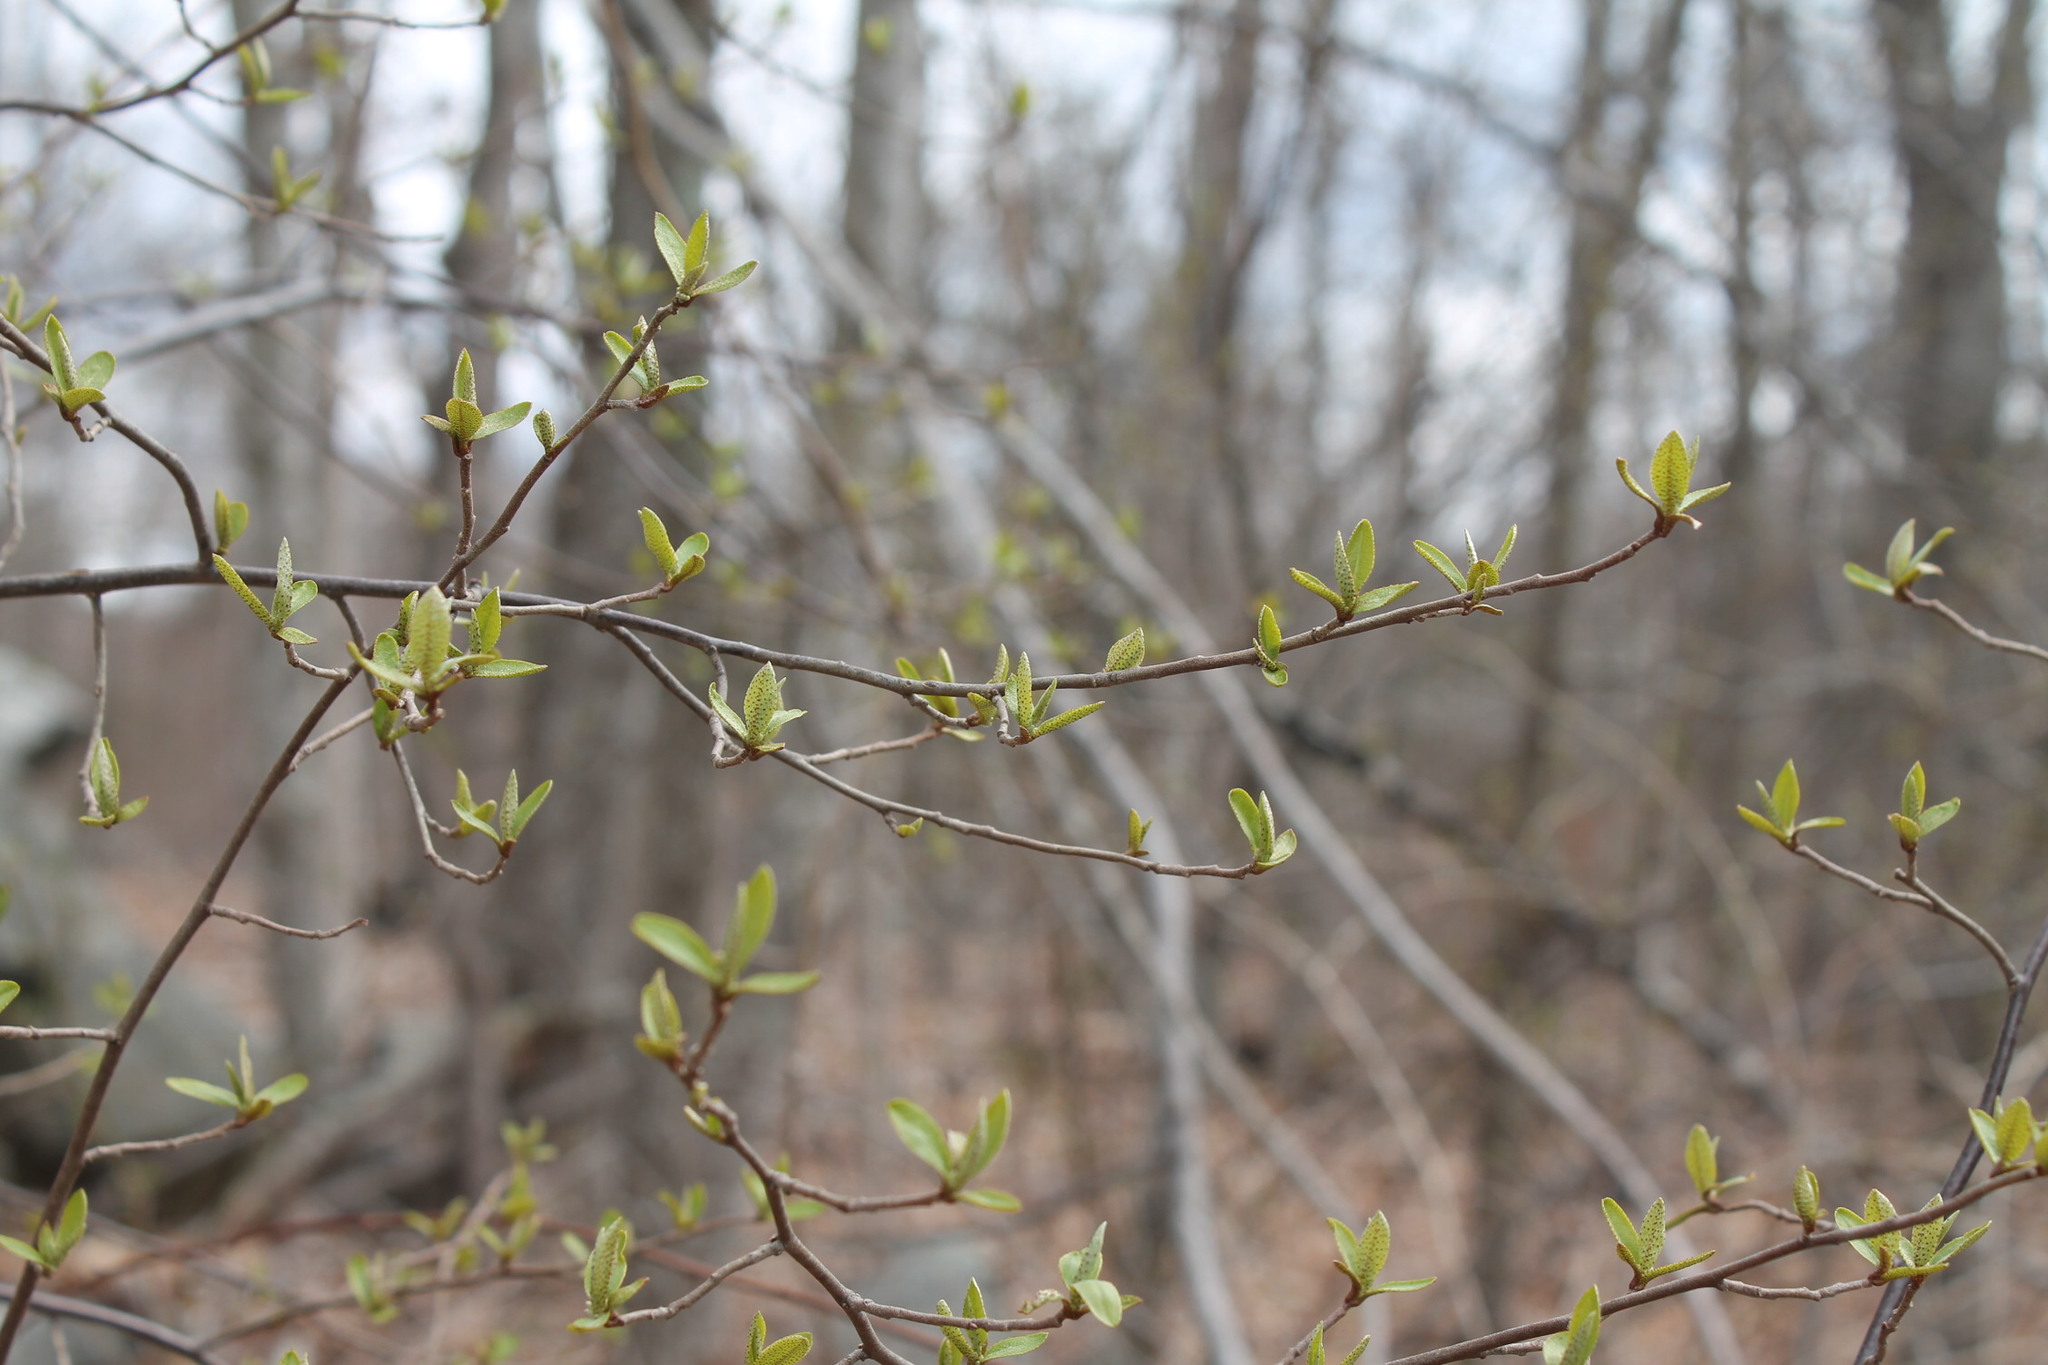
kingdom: Plantae
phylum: Tracheophyta
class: Magnoliopsida
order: Rosales
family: Elaeagnaceae
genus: Elaeagnus
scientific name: Elaeagnus umbellata
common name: Autumn olive
